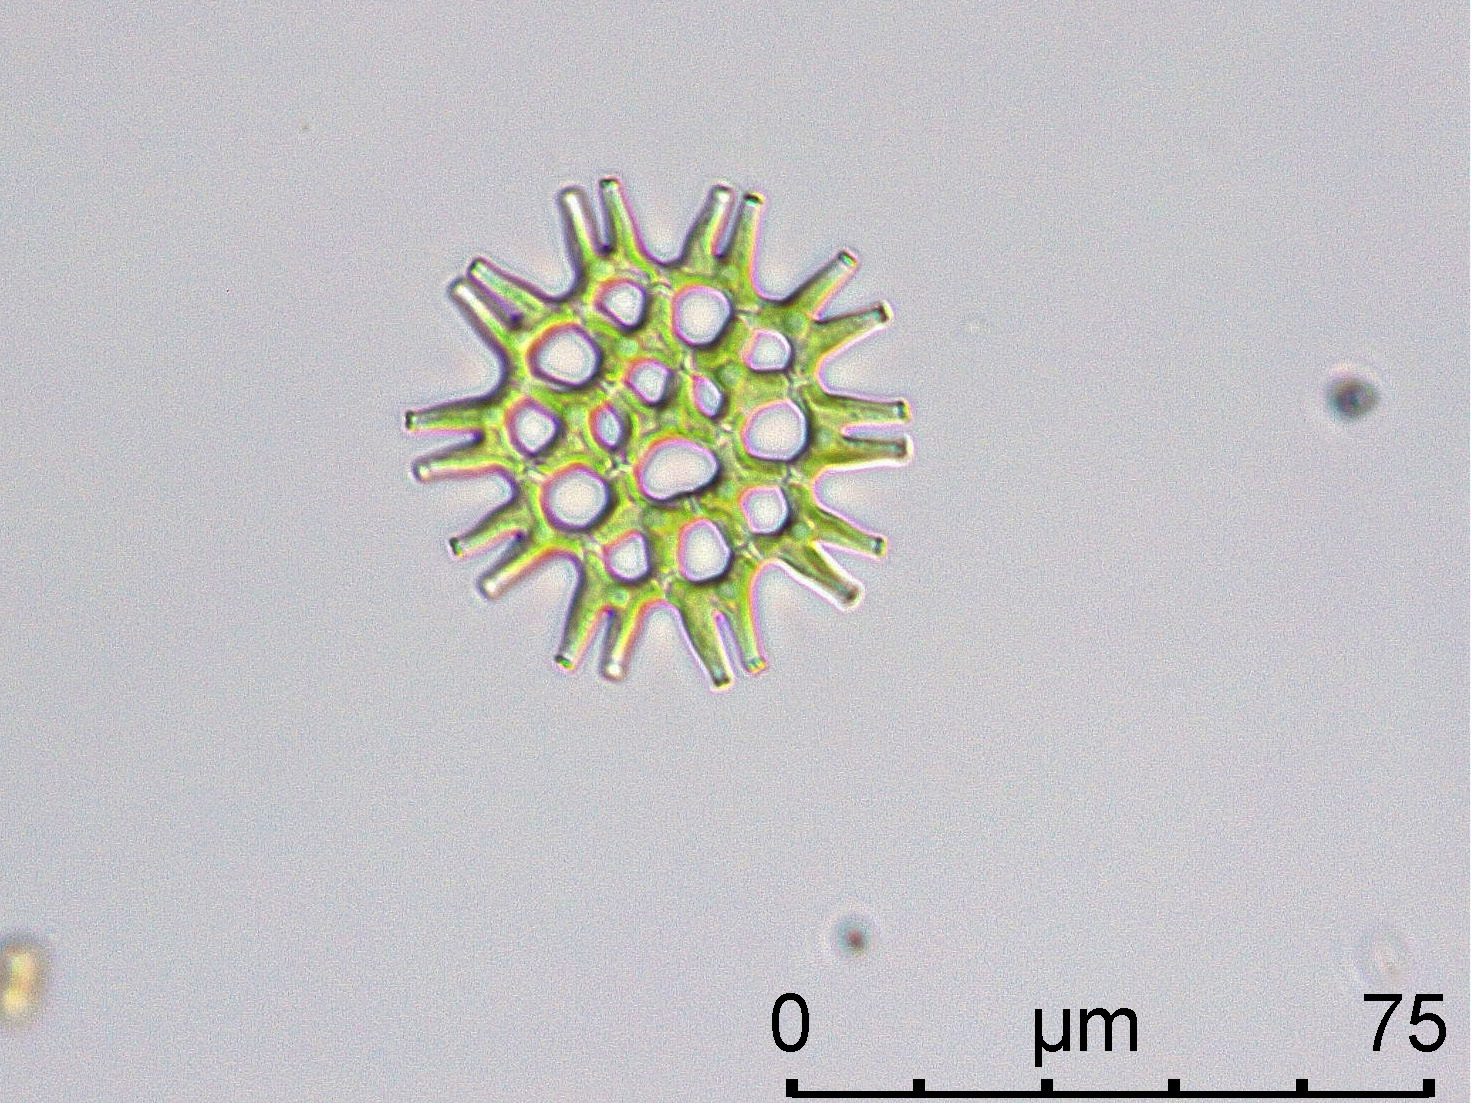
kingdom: Plantae
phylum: Chlorophyta
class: Chlorophyceae
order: Sphaeropleales
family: Hydrodictyaceae
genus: Lacunastrum
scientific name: Lacunastrum gracillimum
